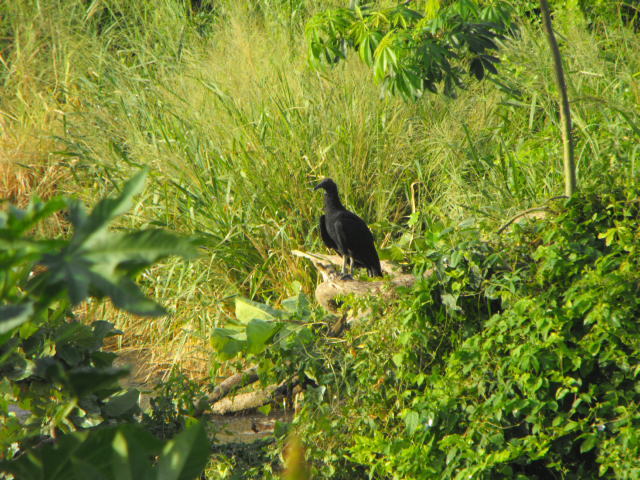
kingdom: Animalia
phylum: Chordata
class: Aves
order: Accipitriformes
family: Cathartidae
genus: Coragyps
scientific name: Coragyps atratus
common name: Black vulture
